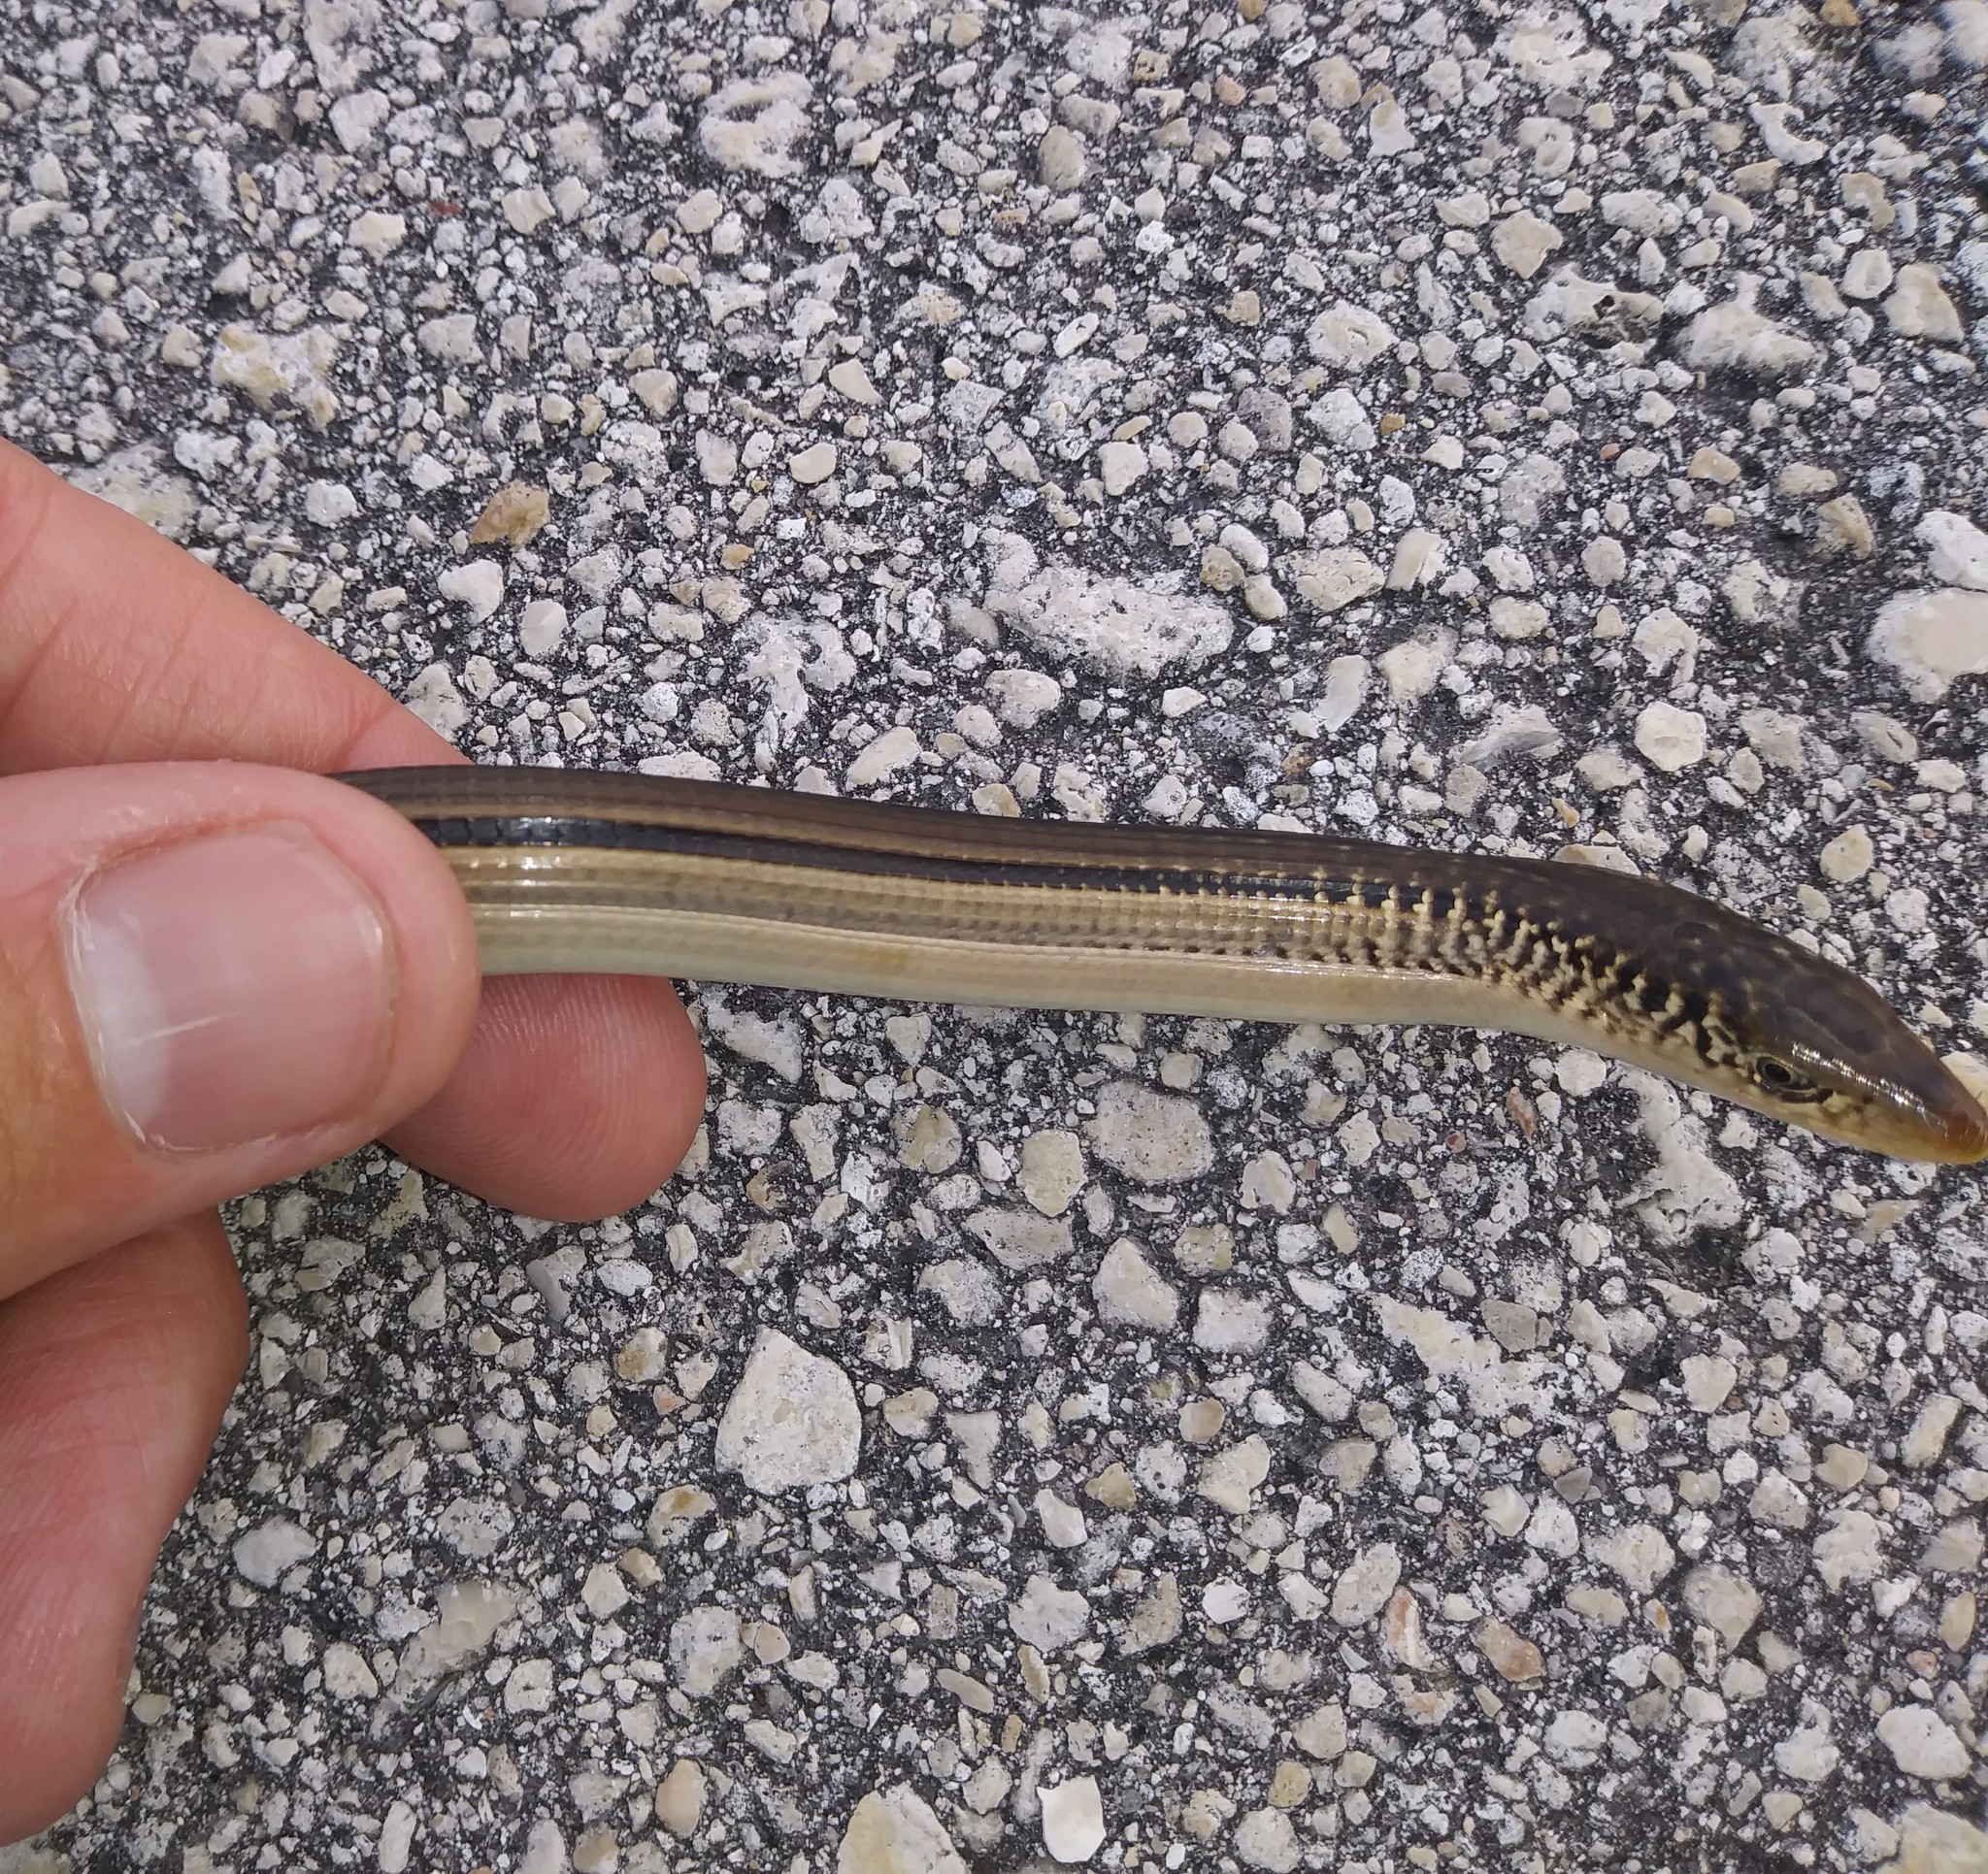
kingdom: Animalia
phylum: Chordata
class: Squamata
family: Anguidae
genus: Ophisaurus
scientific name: Ophisaurus compressus
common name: Island glass lizard
